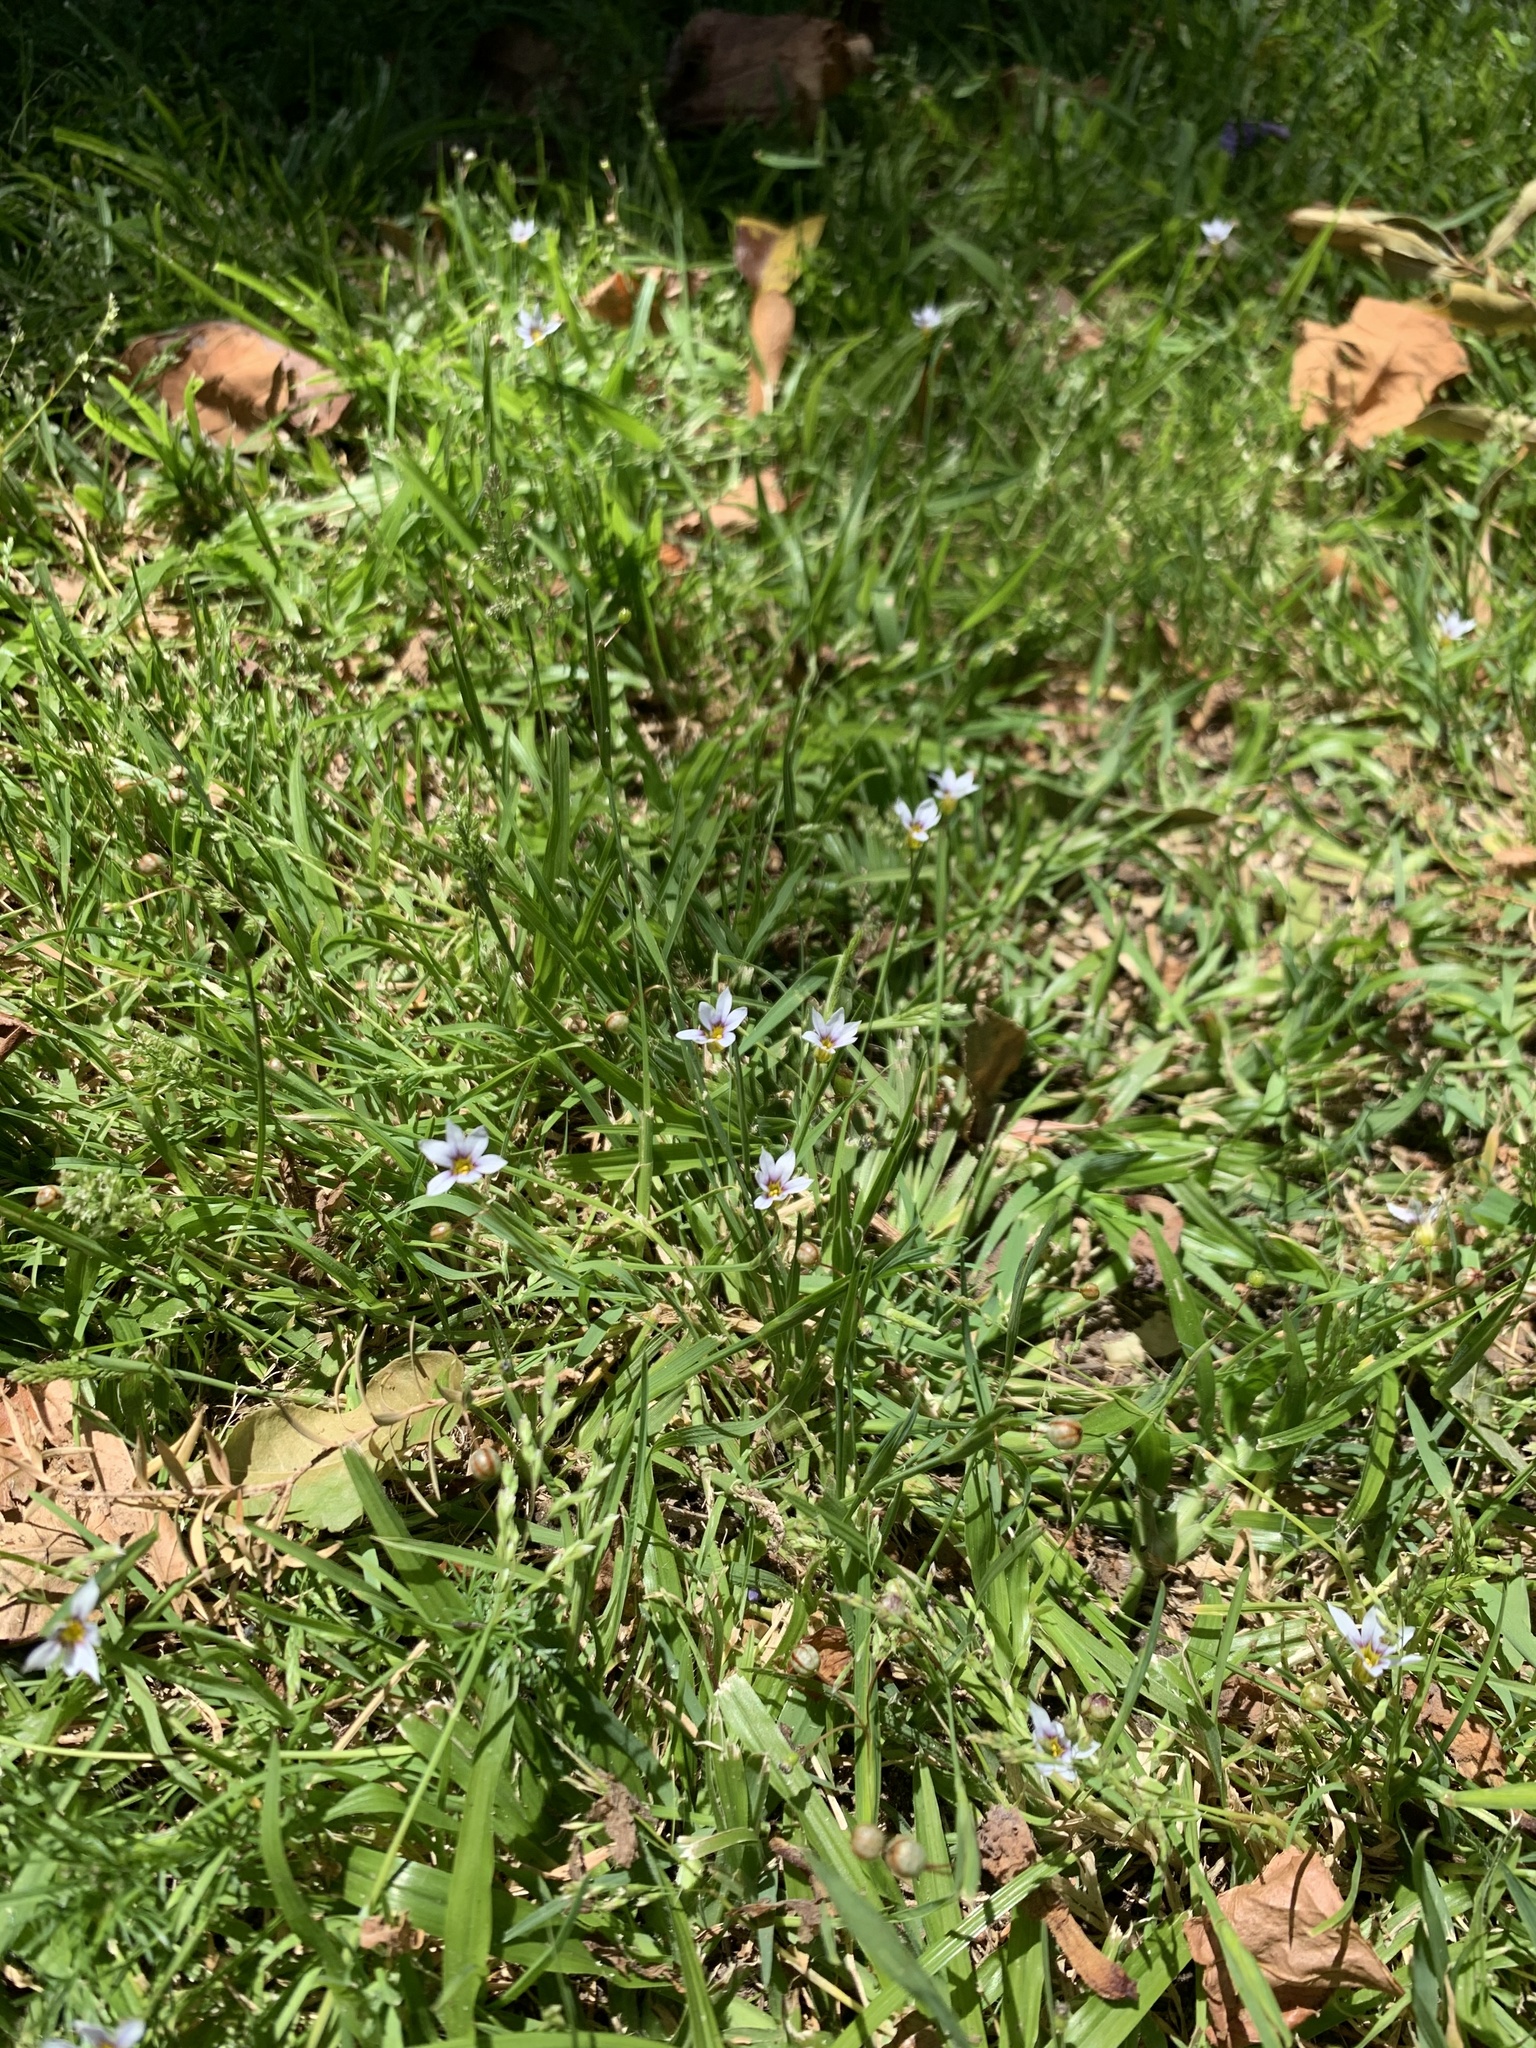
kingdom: Plantae
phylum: Tracheophyta
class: Liliopsida
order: Asparagales
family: Iridaceae
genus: Sisyrinchium
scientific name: Sisyrinchium micranthum
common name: Bermuda pigroot
